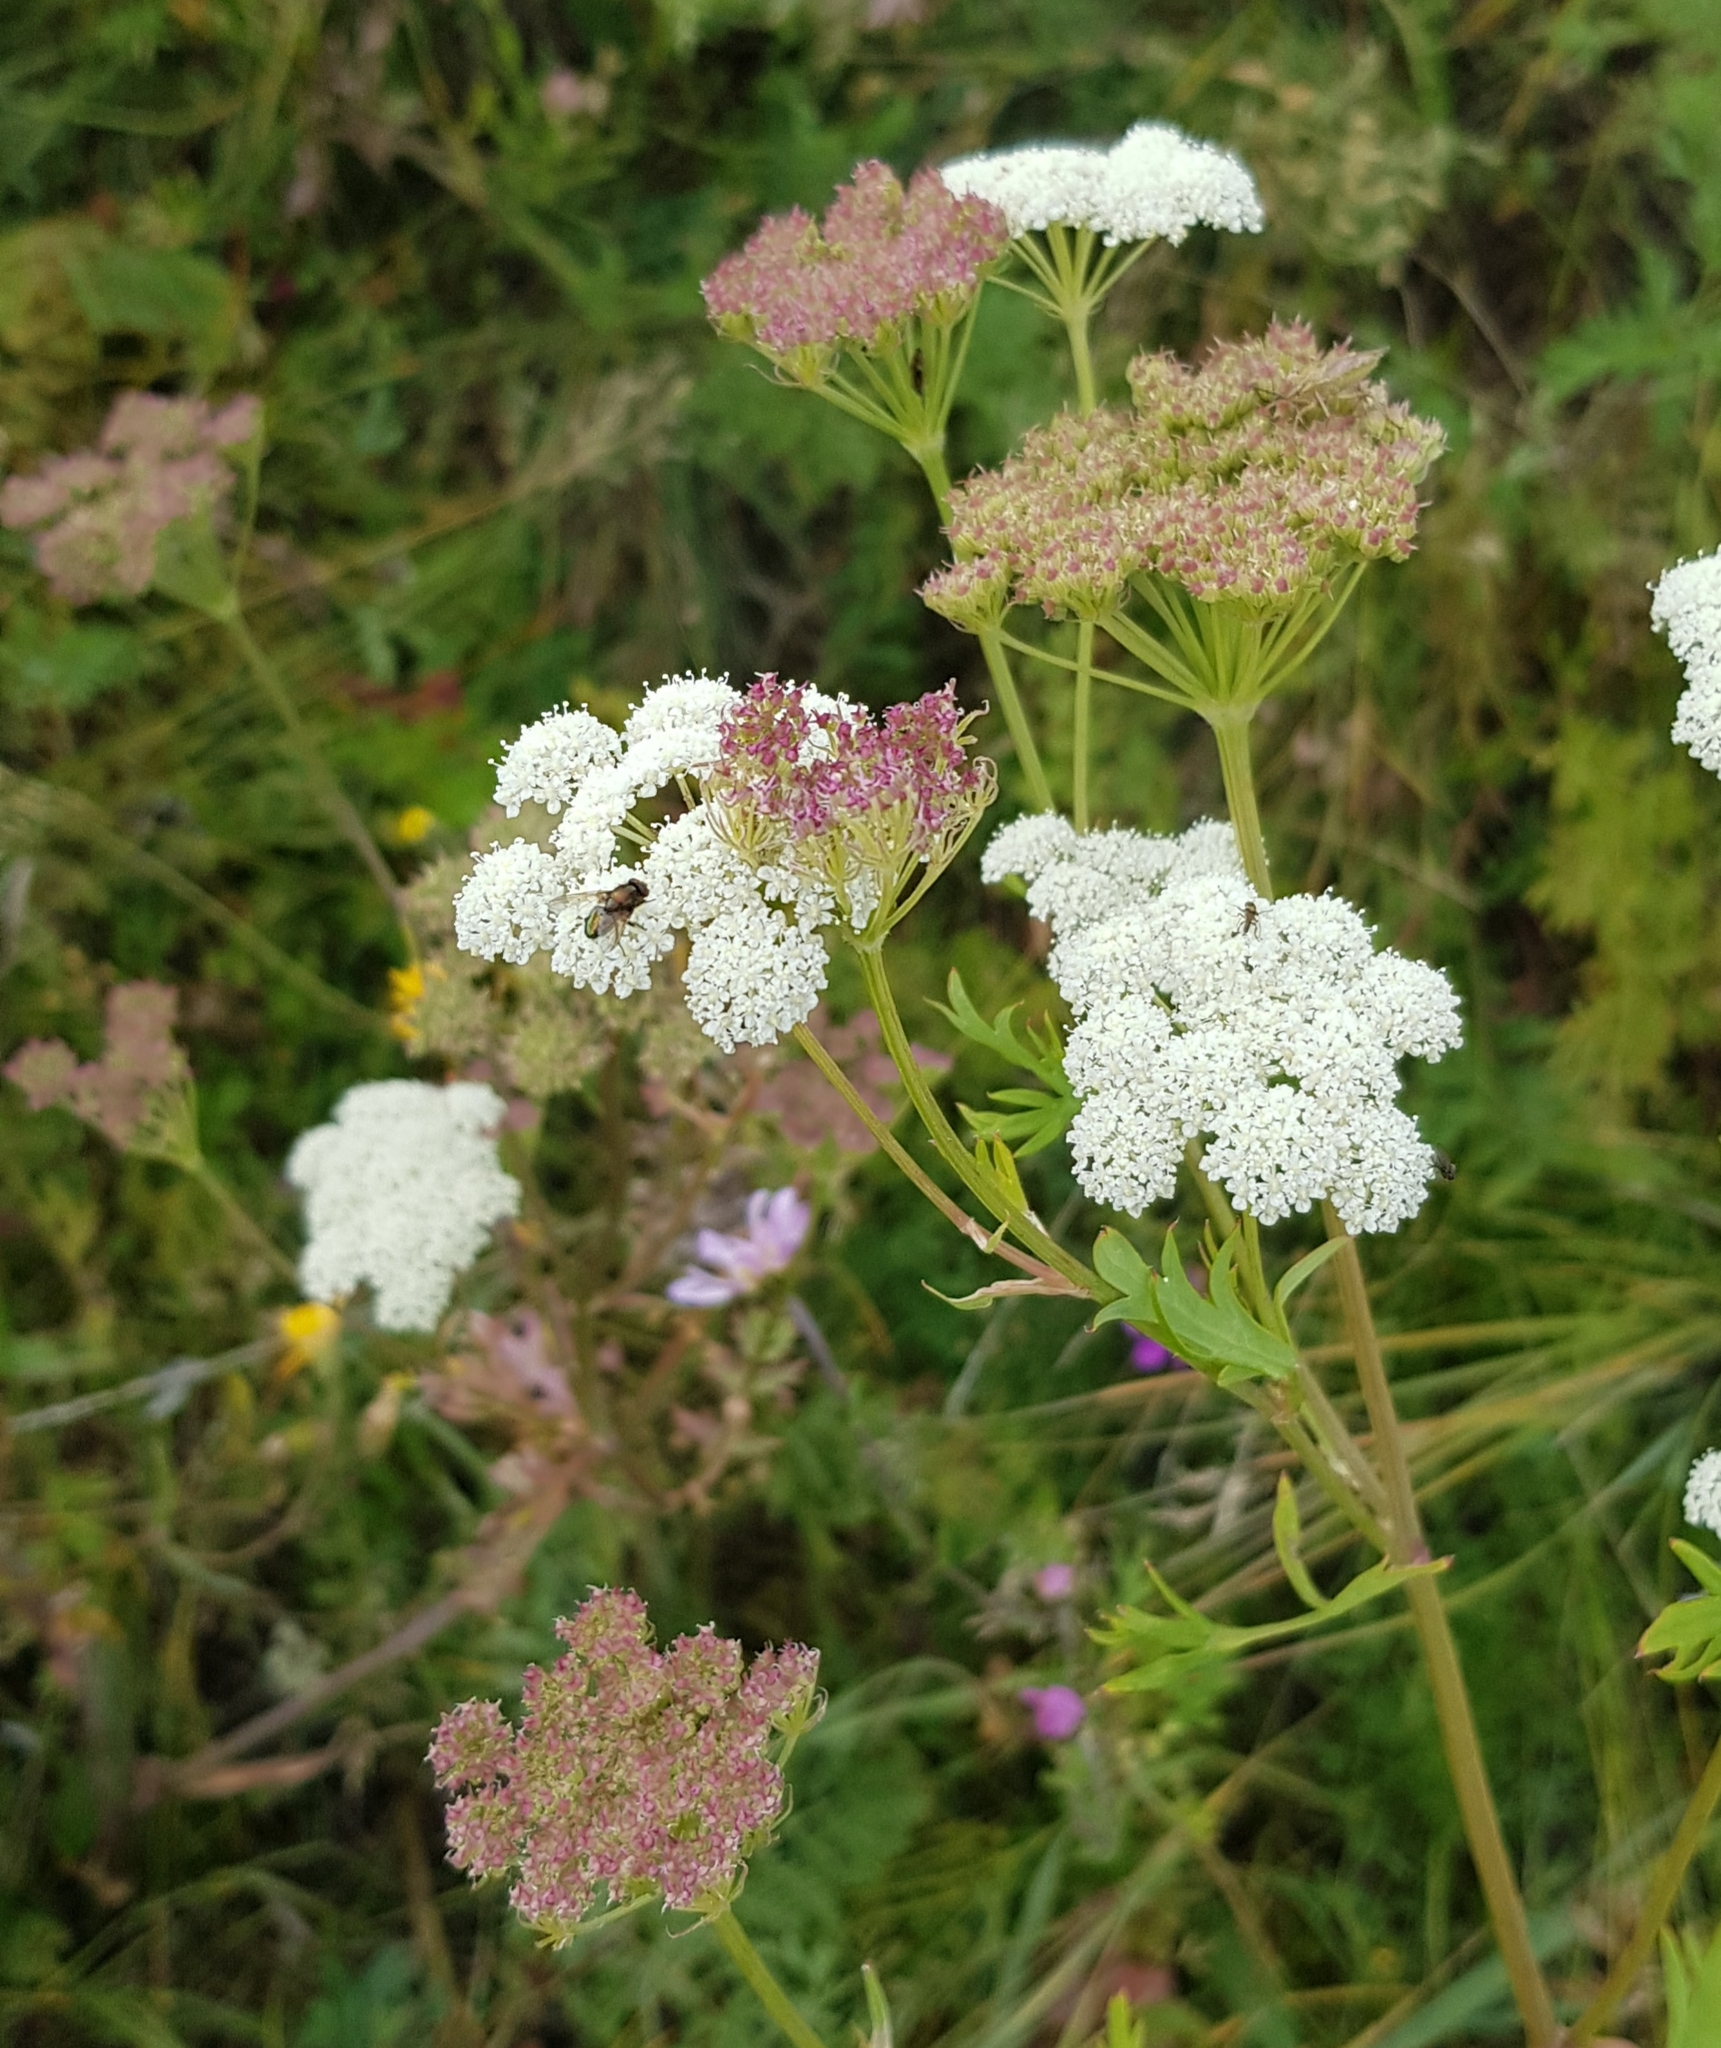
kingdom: Plantae
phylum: Tracheophyta
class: Magnoliopsida
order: Apiales
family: Apiaceae
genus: Kitagawia
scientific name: Kitagawia terebinthacea
